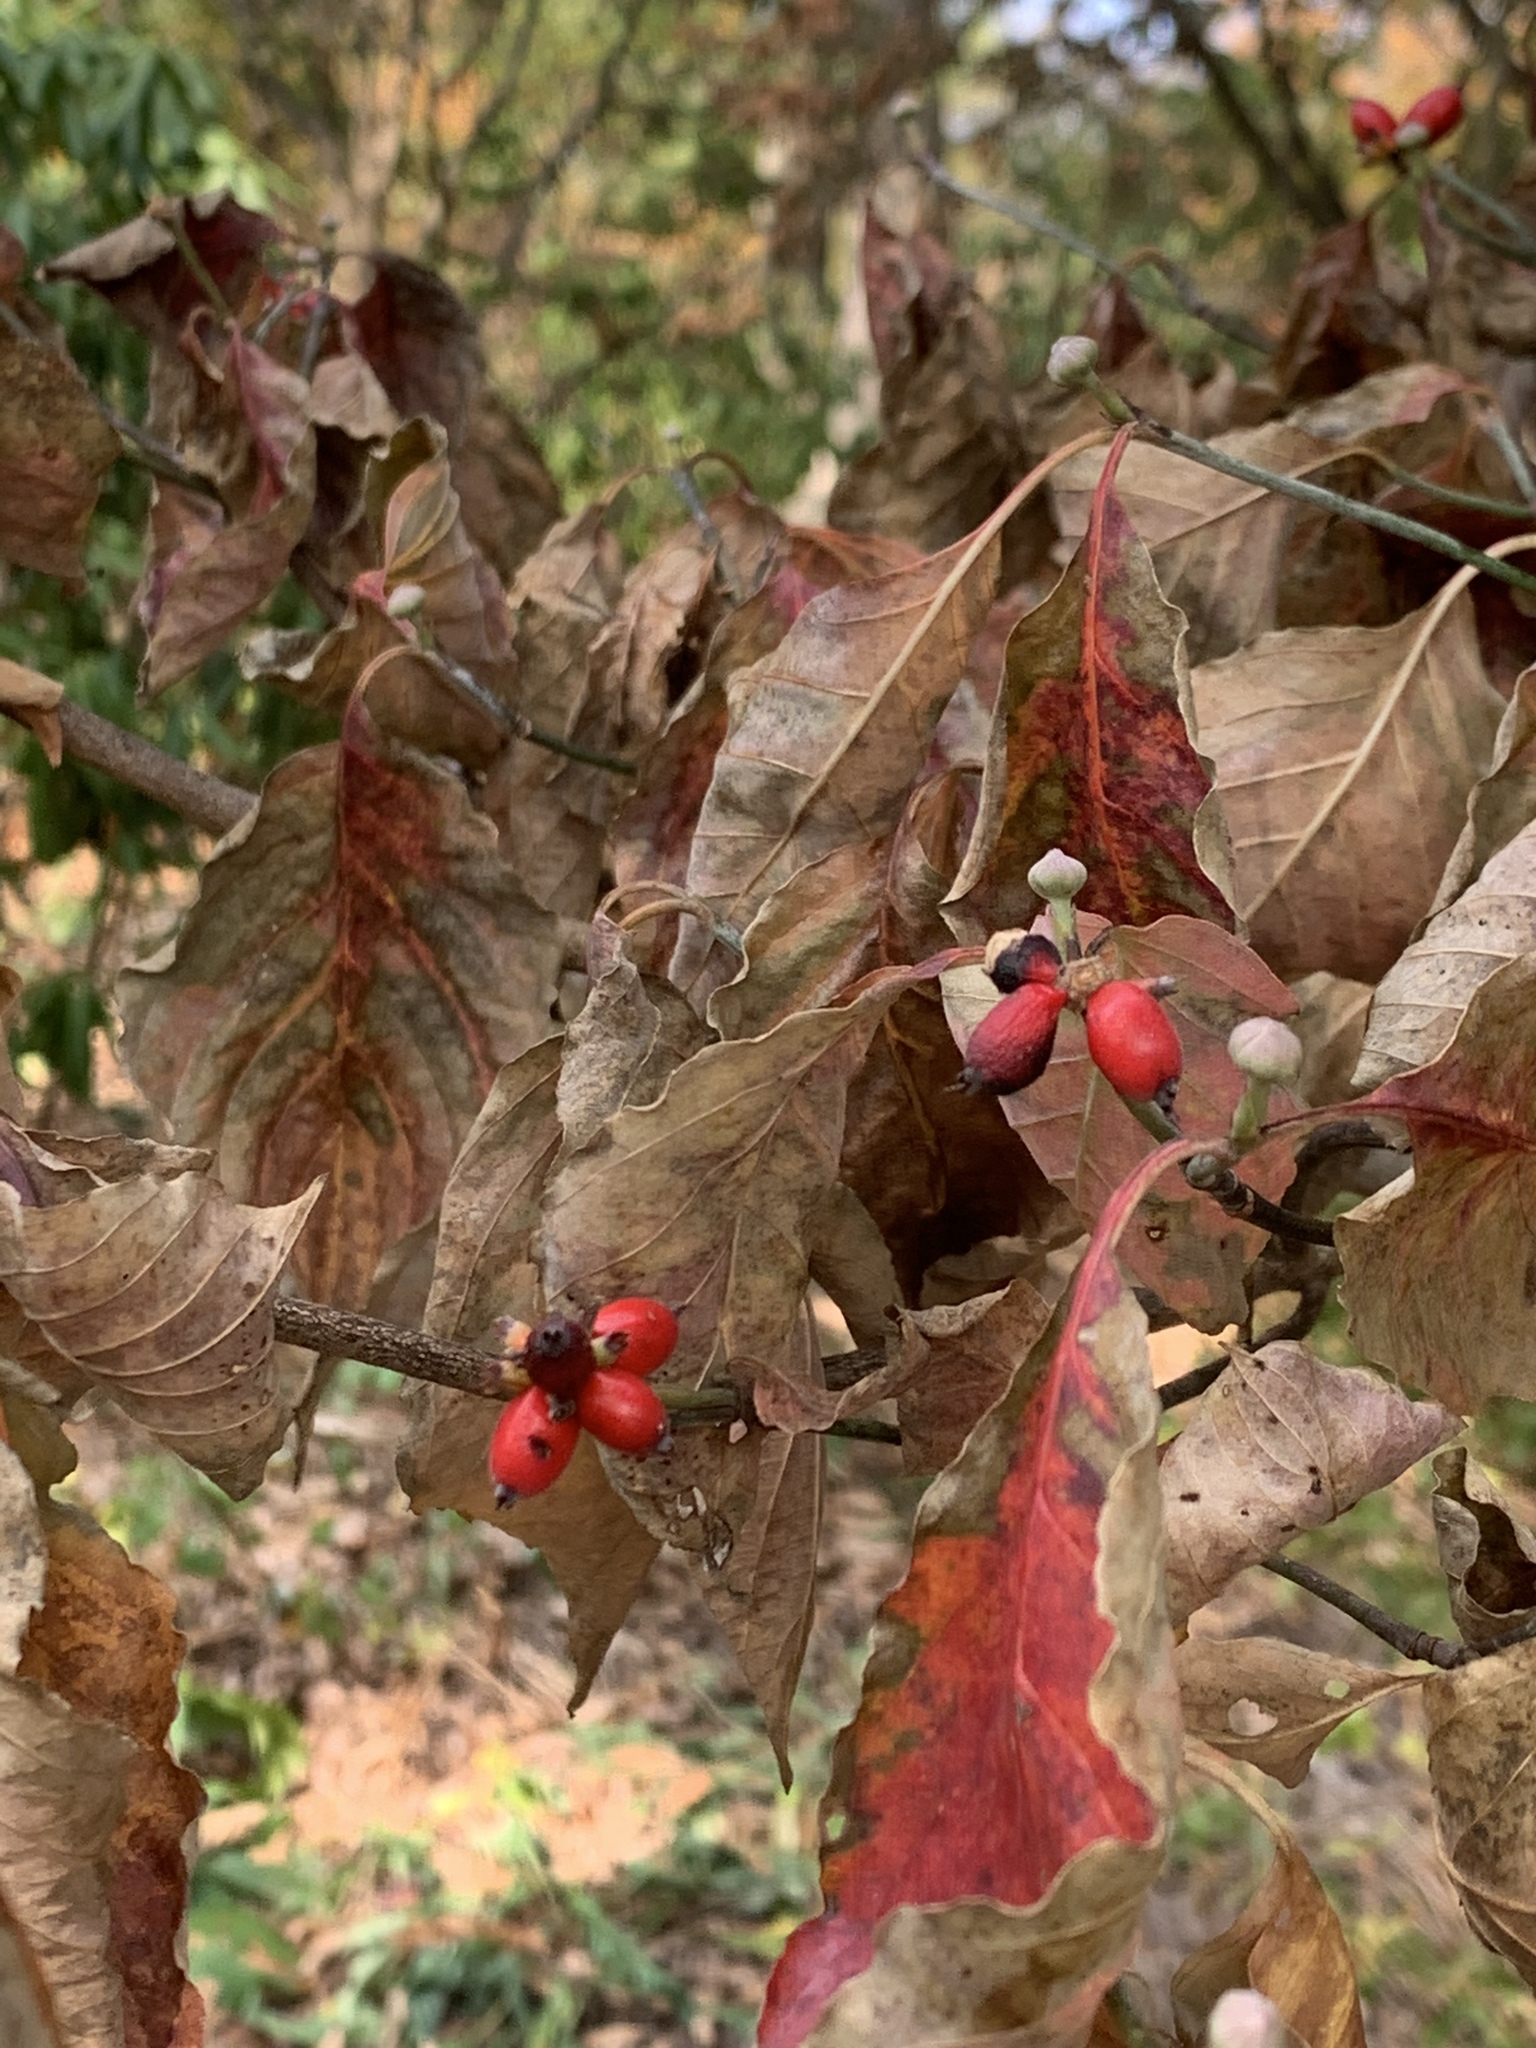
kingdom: Plantae
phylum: Tracheophyta
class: Magnoliopsida
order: Cornales
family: Cornaceae
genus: Cornus
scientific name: Cornus florida
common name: Flowering dogwood
